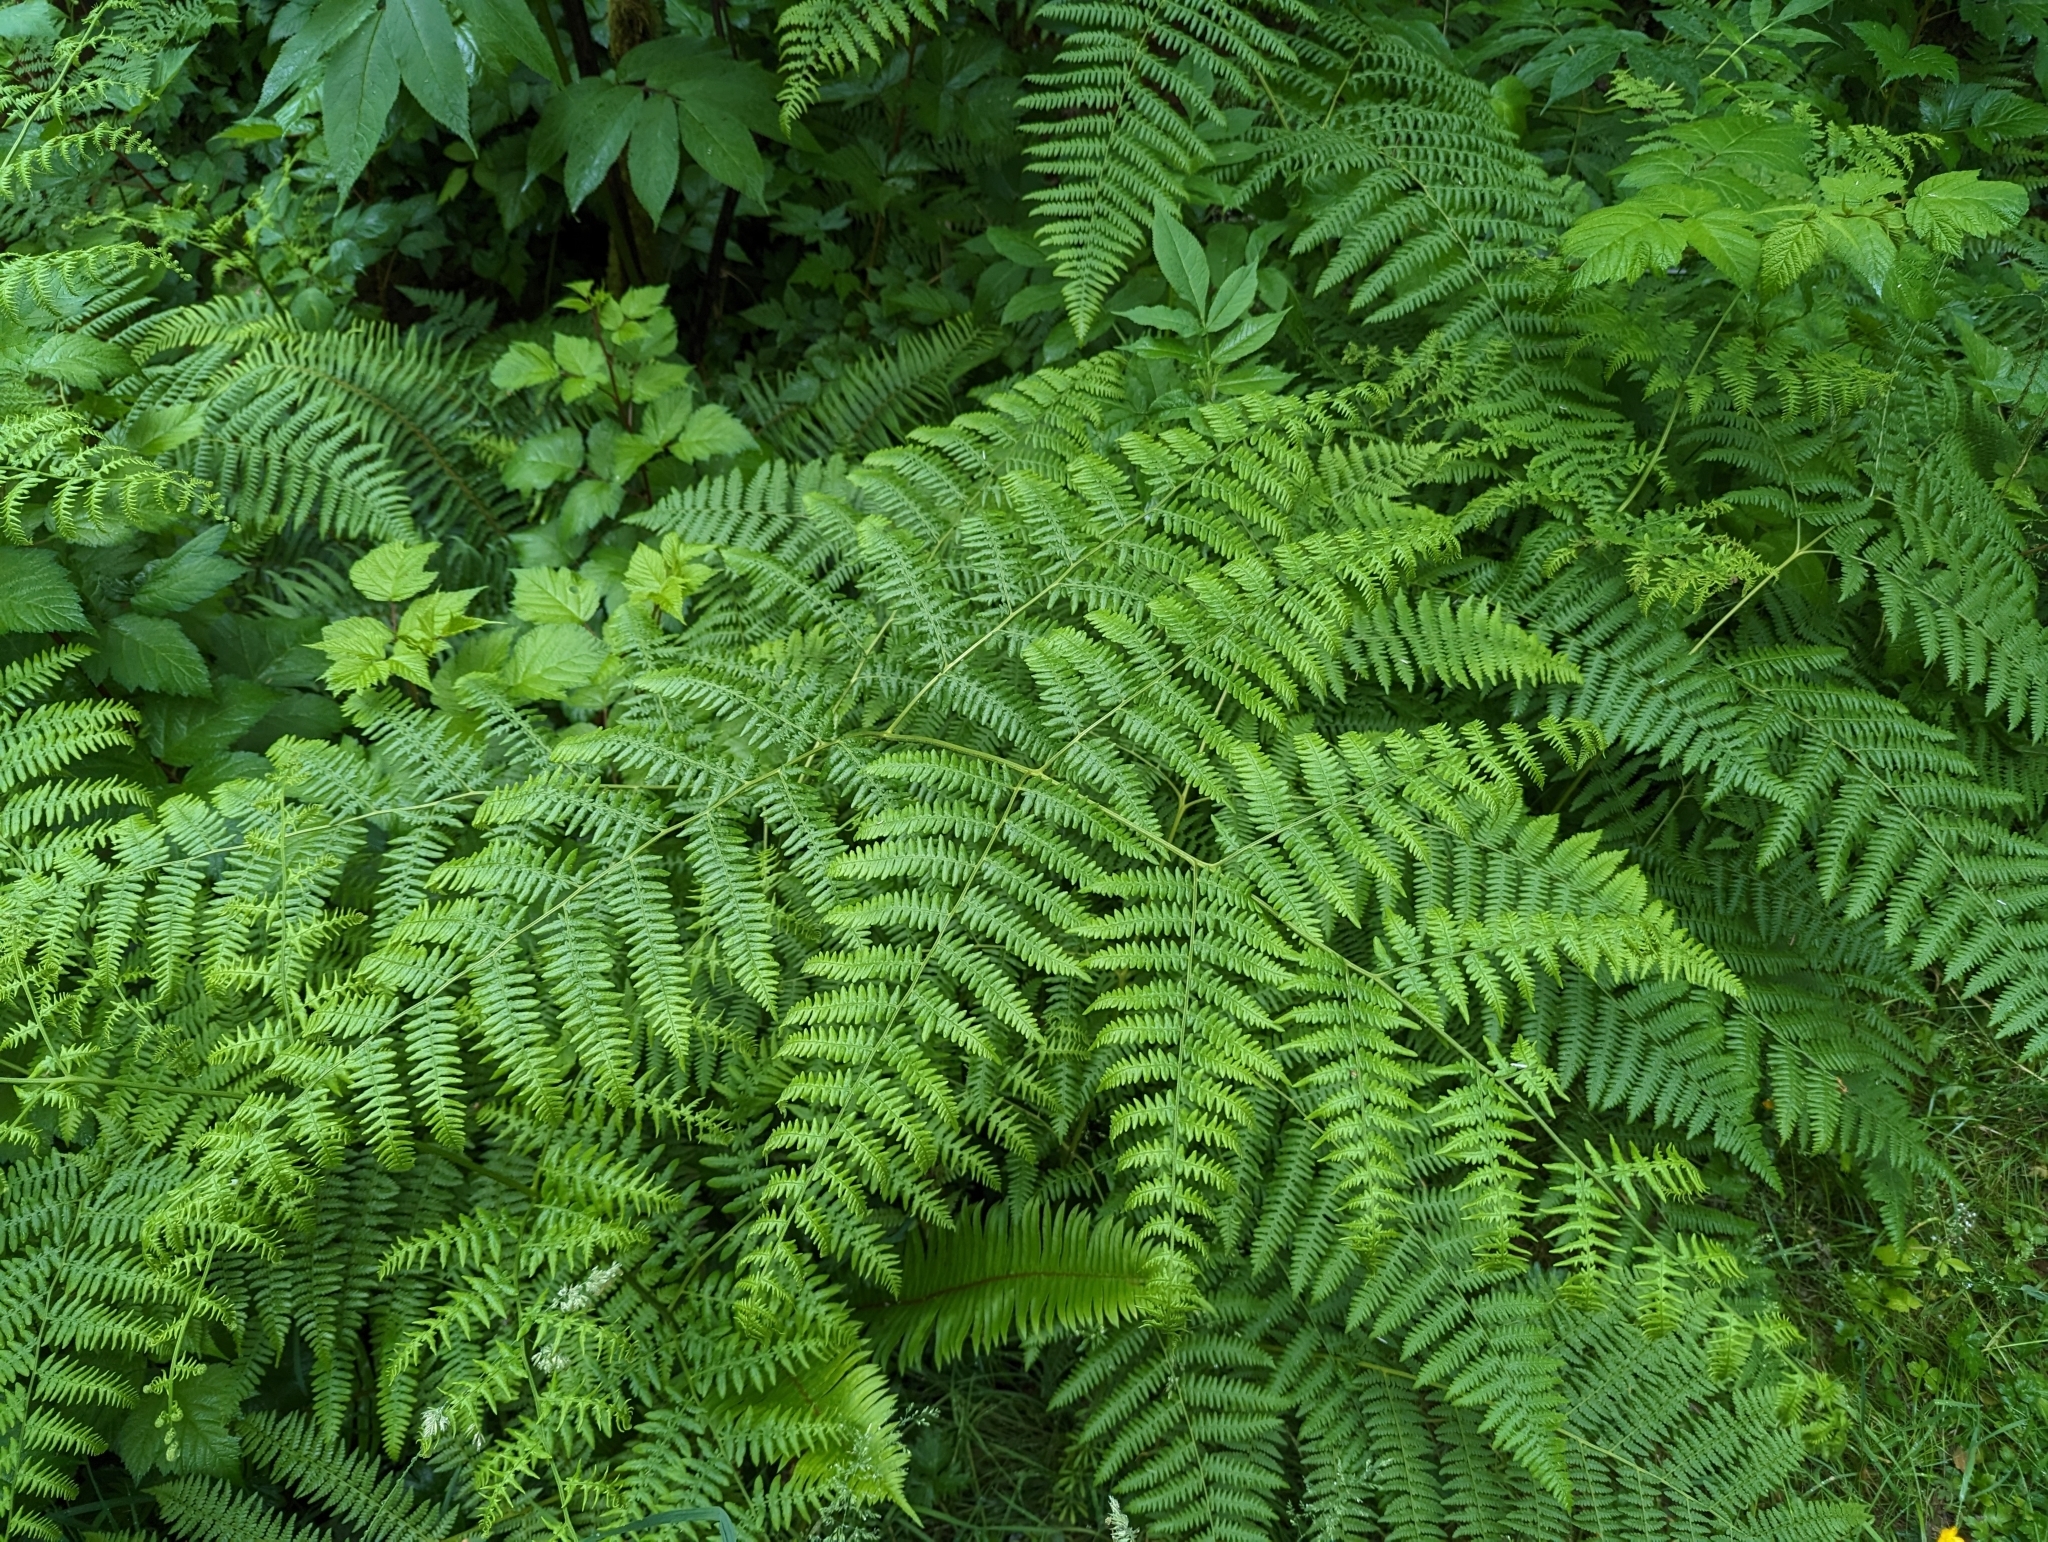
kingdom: Plantae
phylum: Tracheophyta
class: Polypodiopsida
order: Polypodiales
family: Dennstaedtiaceae
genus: Pteridium
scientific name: Pteridium aquilinum
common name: Bracken
